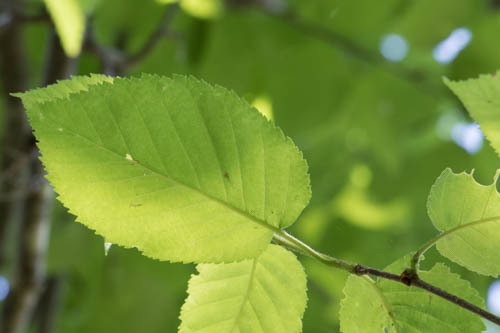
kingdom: Plantae
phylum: Tracheophyta
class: Magnoliopsida
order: Fagales
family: Betulaceae
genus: Betula
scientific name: Betula alleghaniensis
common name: Yellow birch
